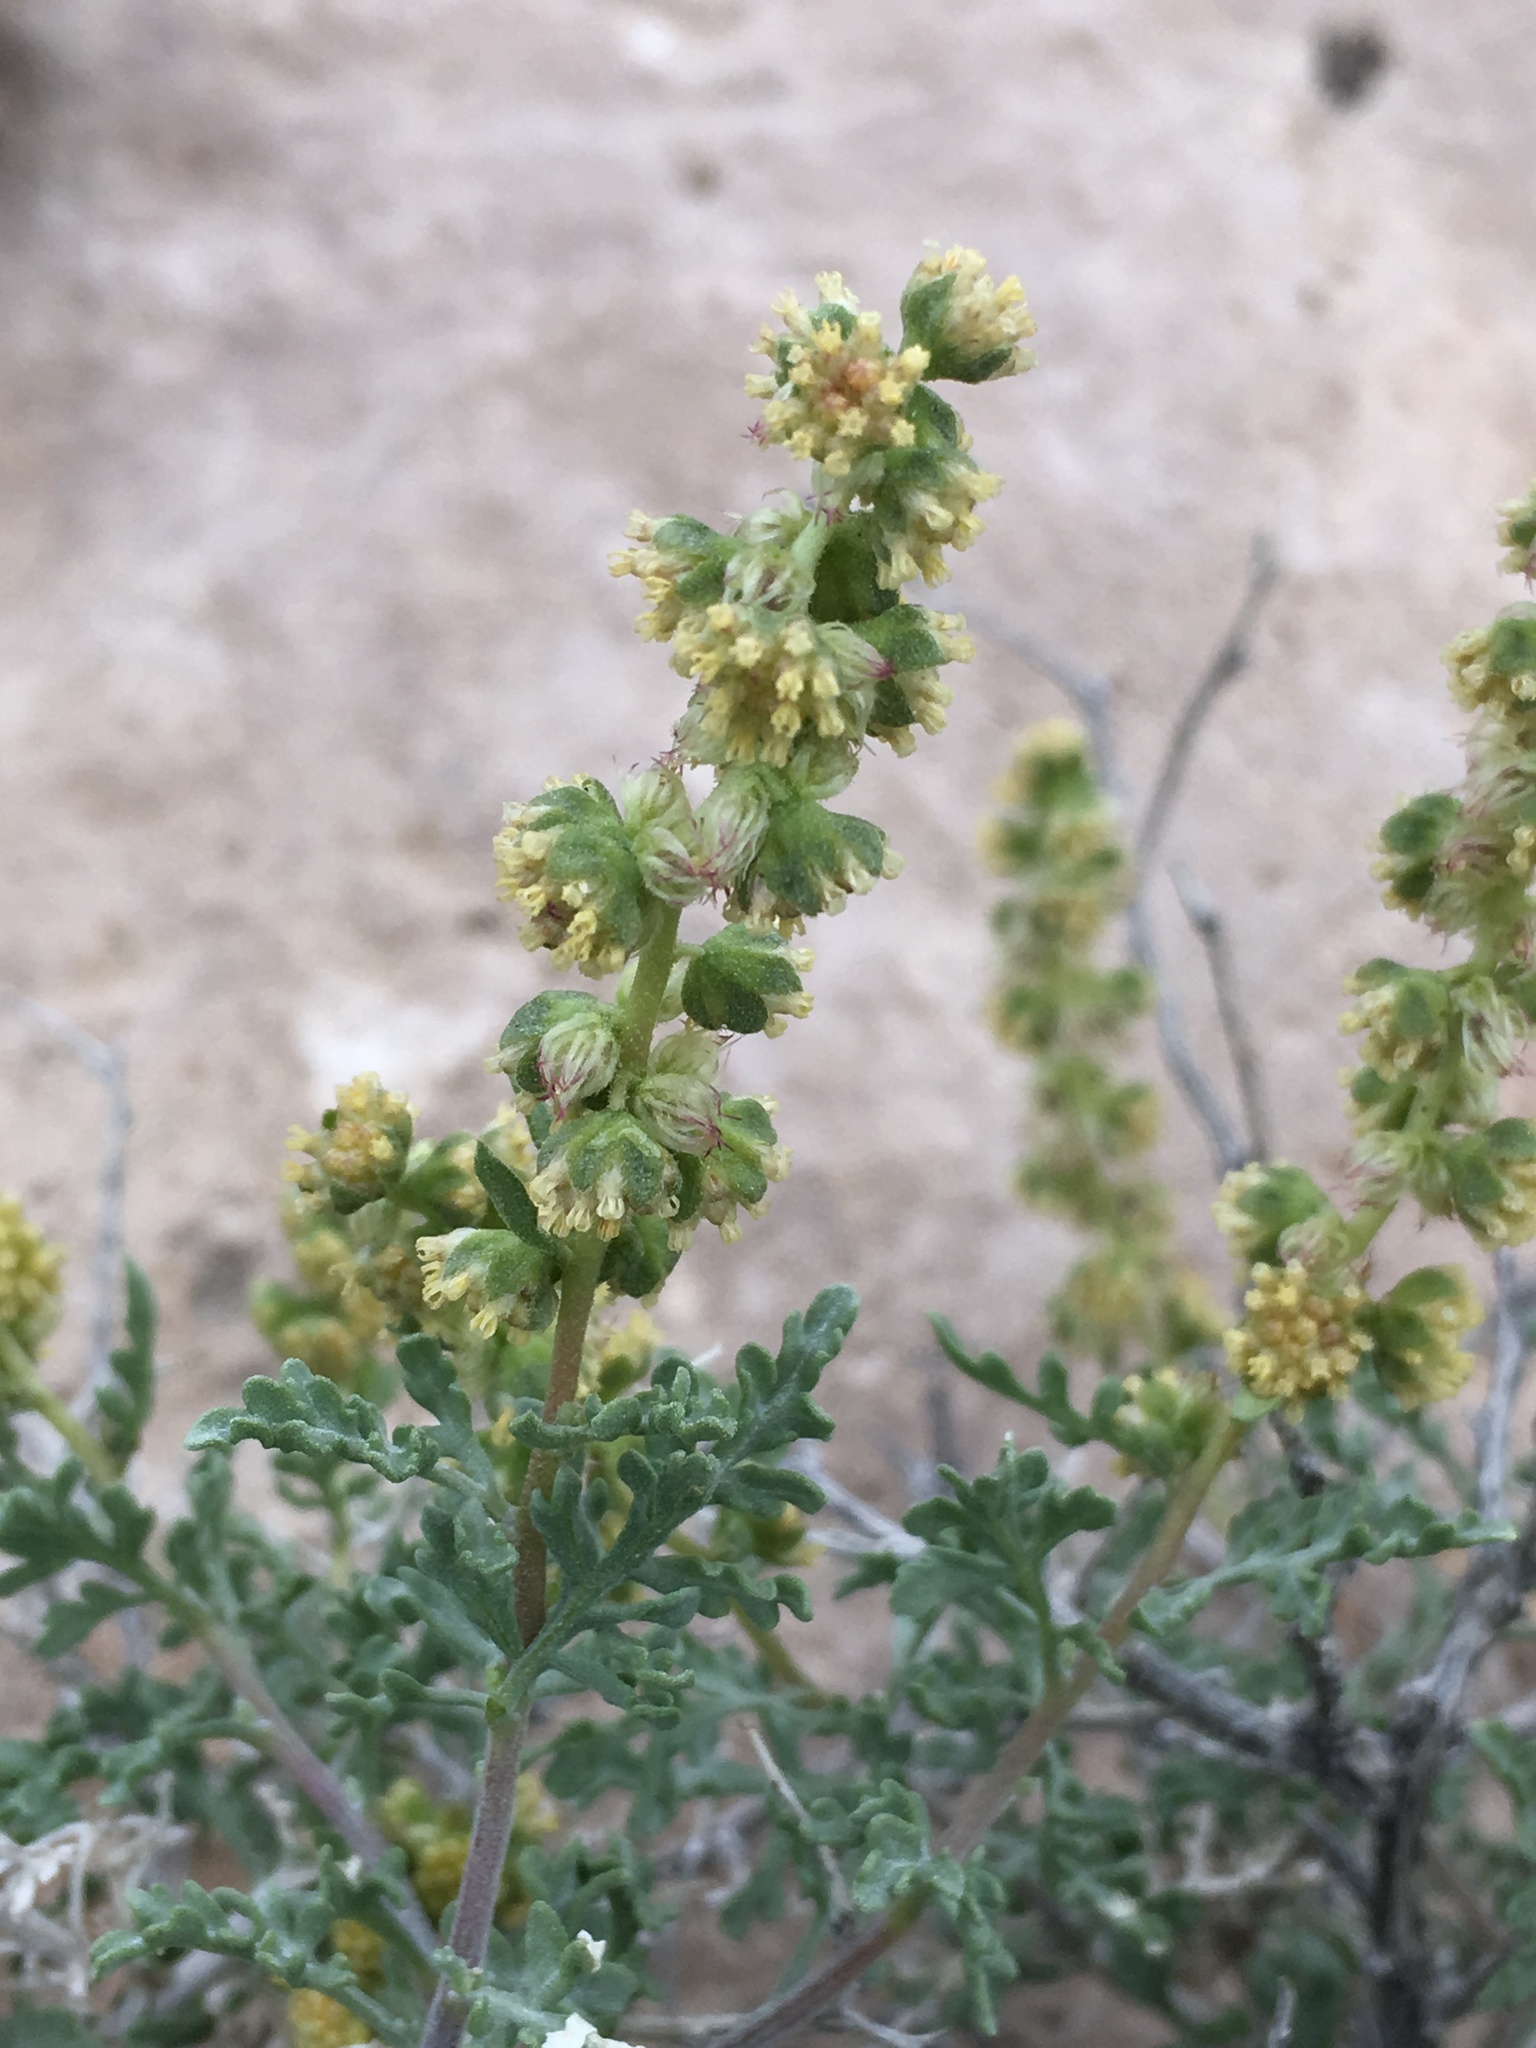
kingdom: Plantae
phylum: Tracheophyta
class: Magnoliopsida
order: Asterales
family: Asteraceae
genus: Ambrosia
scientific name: Ambrosia dumosa
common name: Bur-sage
